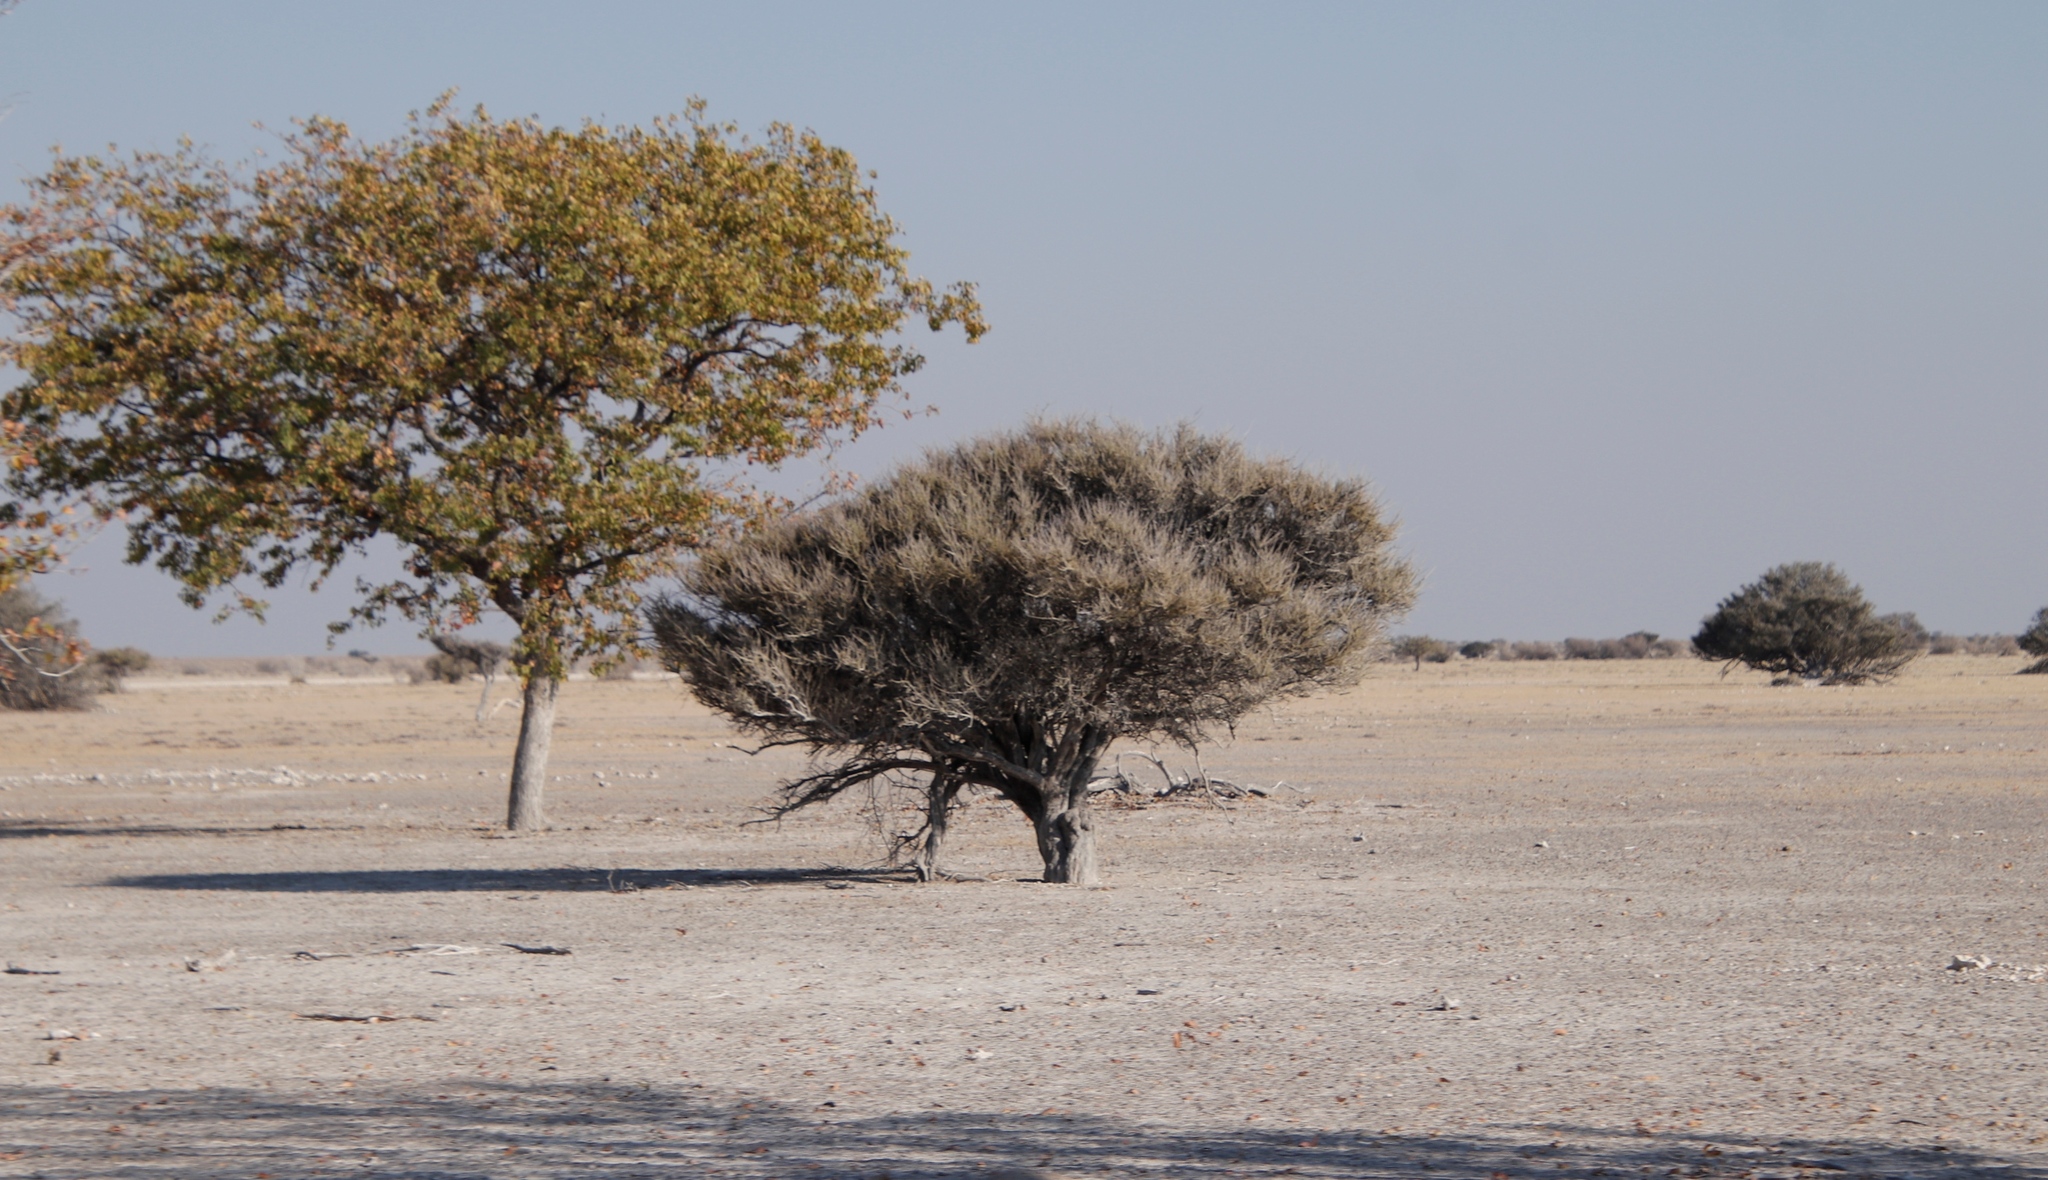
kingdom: Plantae
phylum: Tracheophyta
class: Magnoliopsida
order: Brassicales
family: Capparaceae
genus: Boscia
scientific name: Boscia foetida
